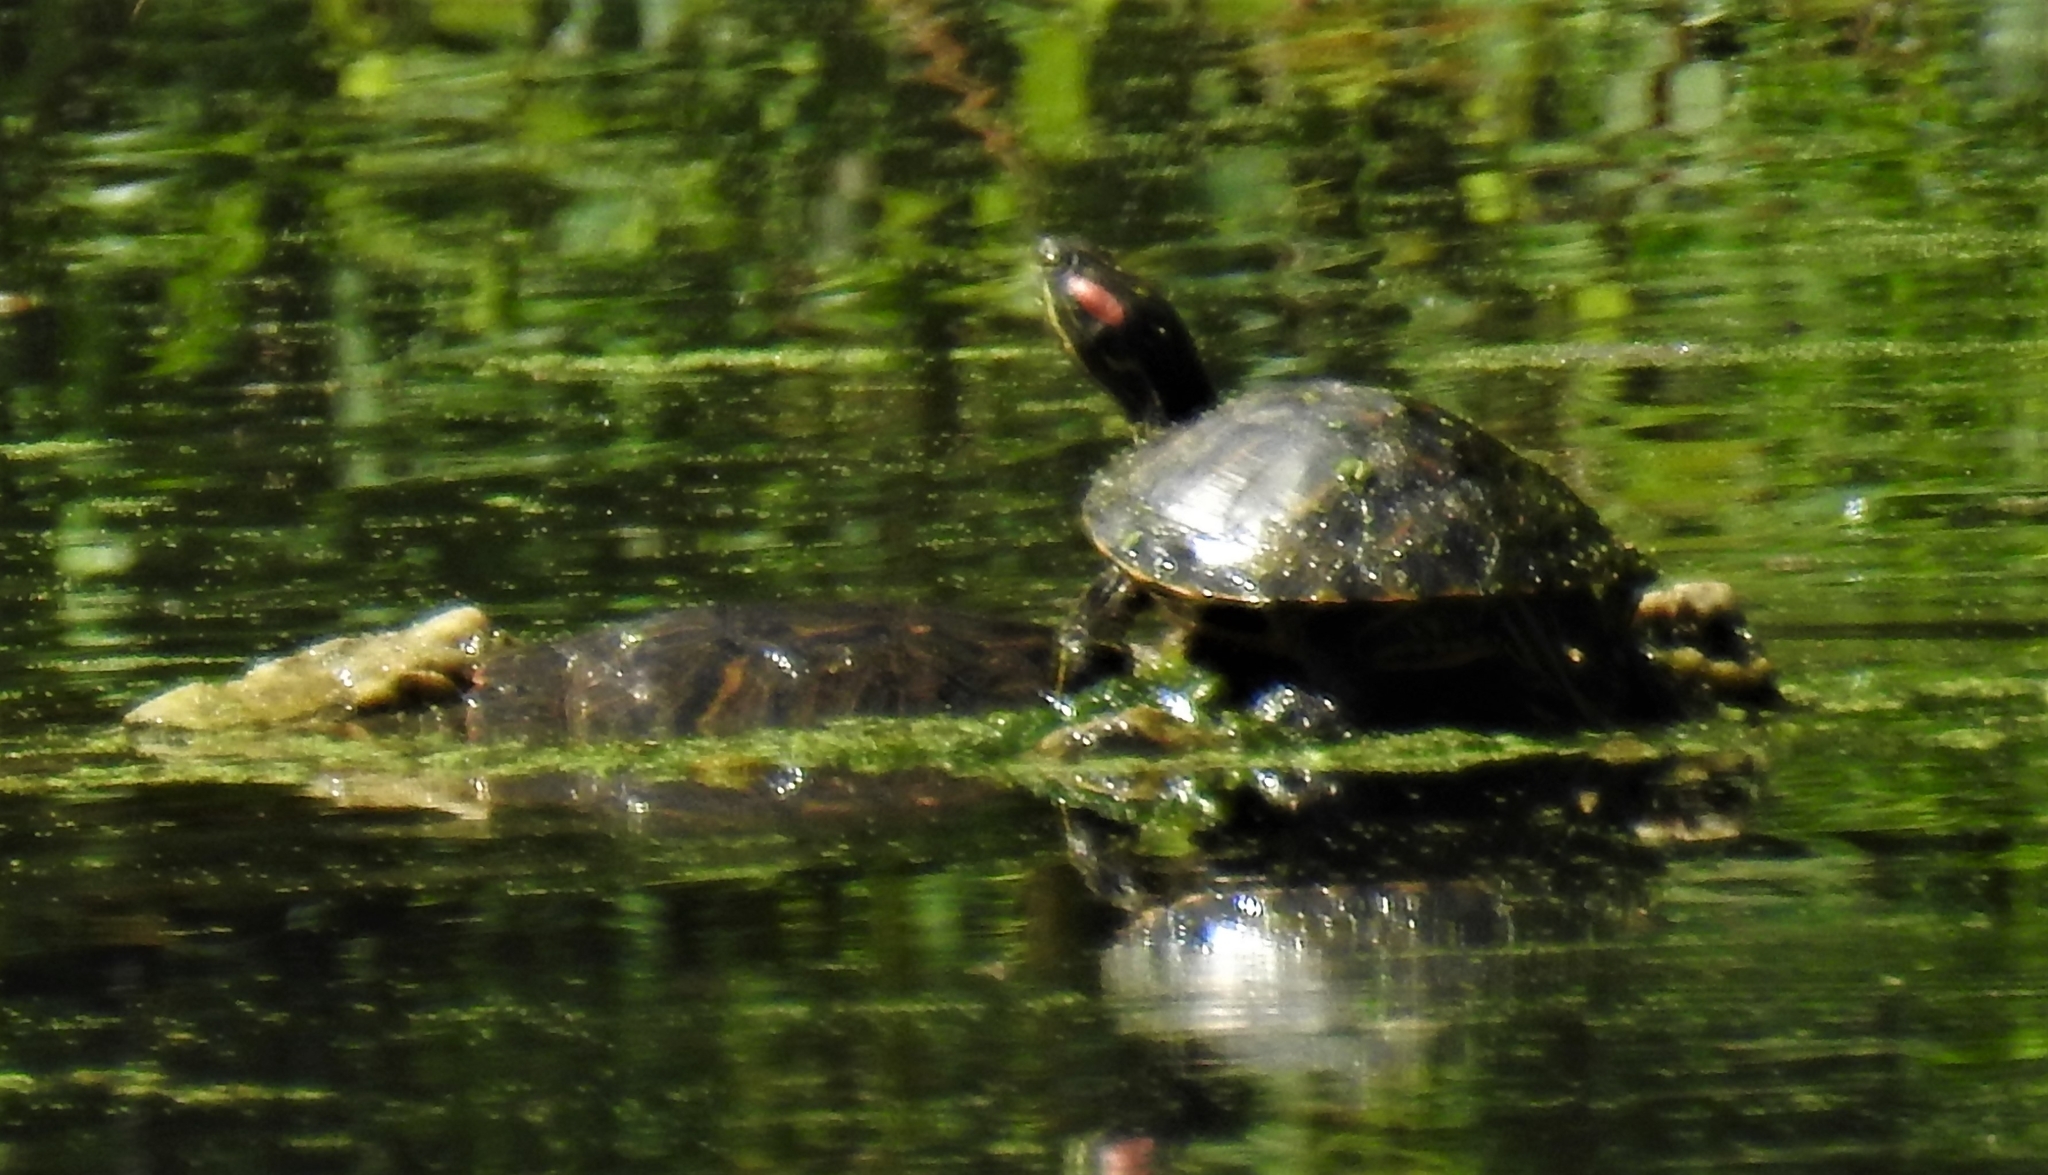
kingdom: Animalia
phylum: Chordata
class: Testudines
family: Emydidae
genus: Trachemys
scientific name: Trachemys scripta
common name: Slider
